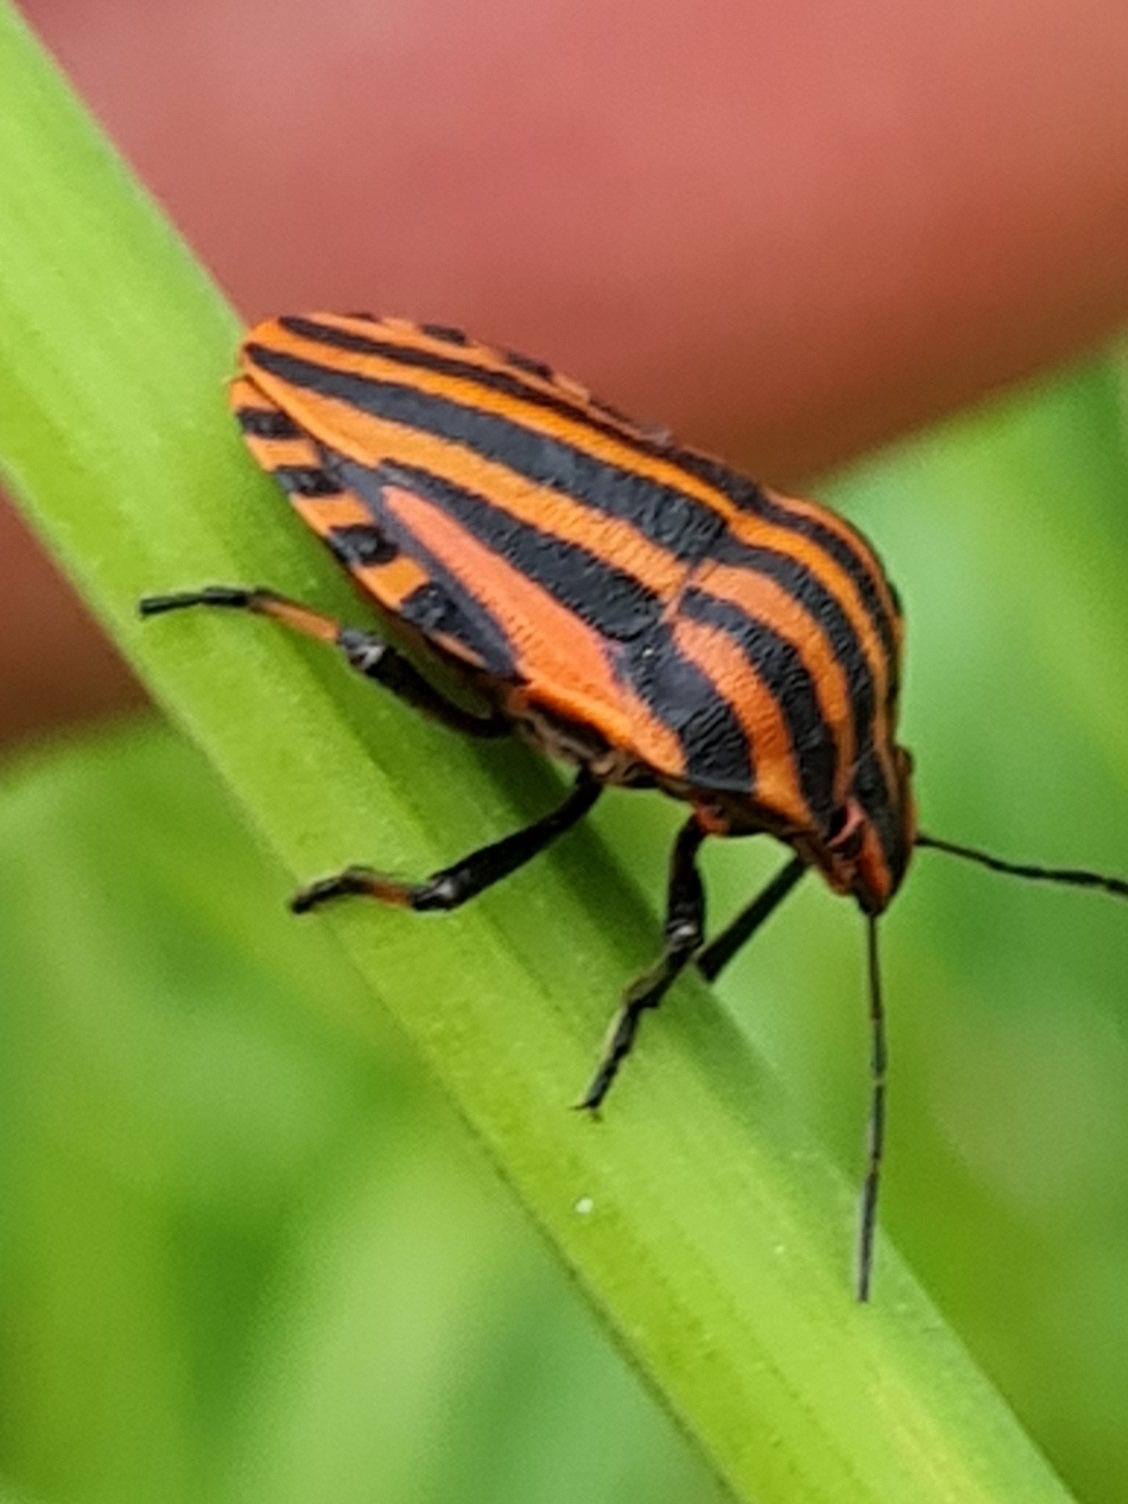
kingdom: Animalia
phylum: Arthropoda
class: Insecta
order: Hemiptera
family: Pentatomidae
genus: Graphosoma
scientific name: Graphosoma italicum
